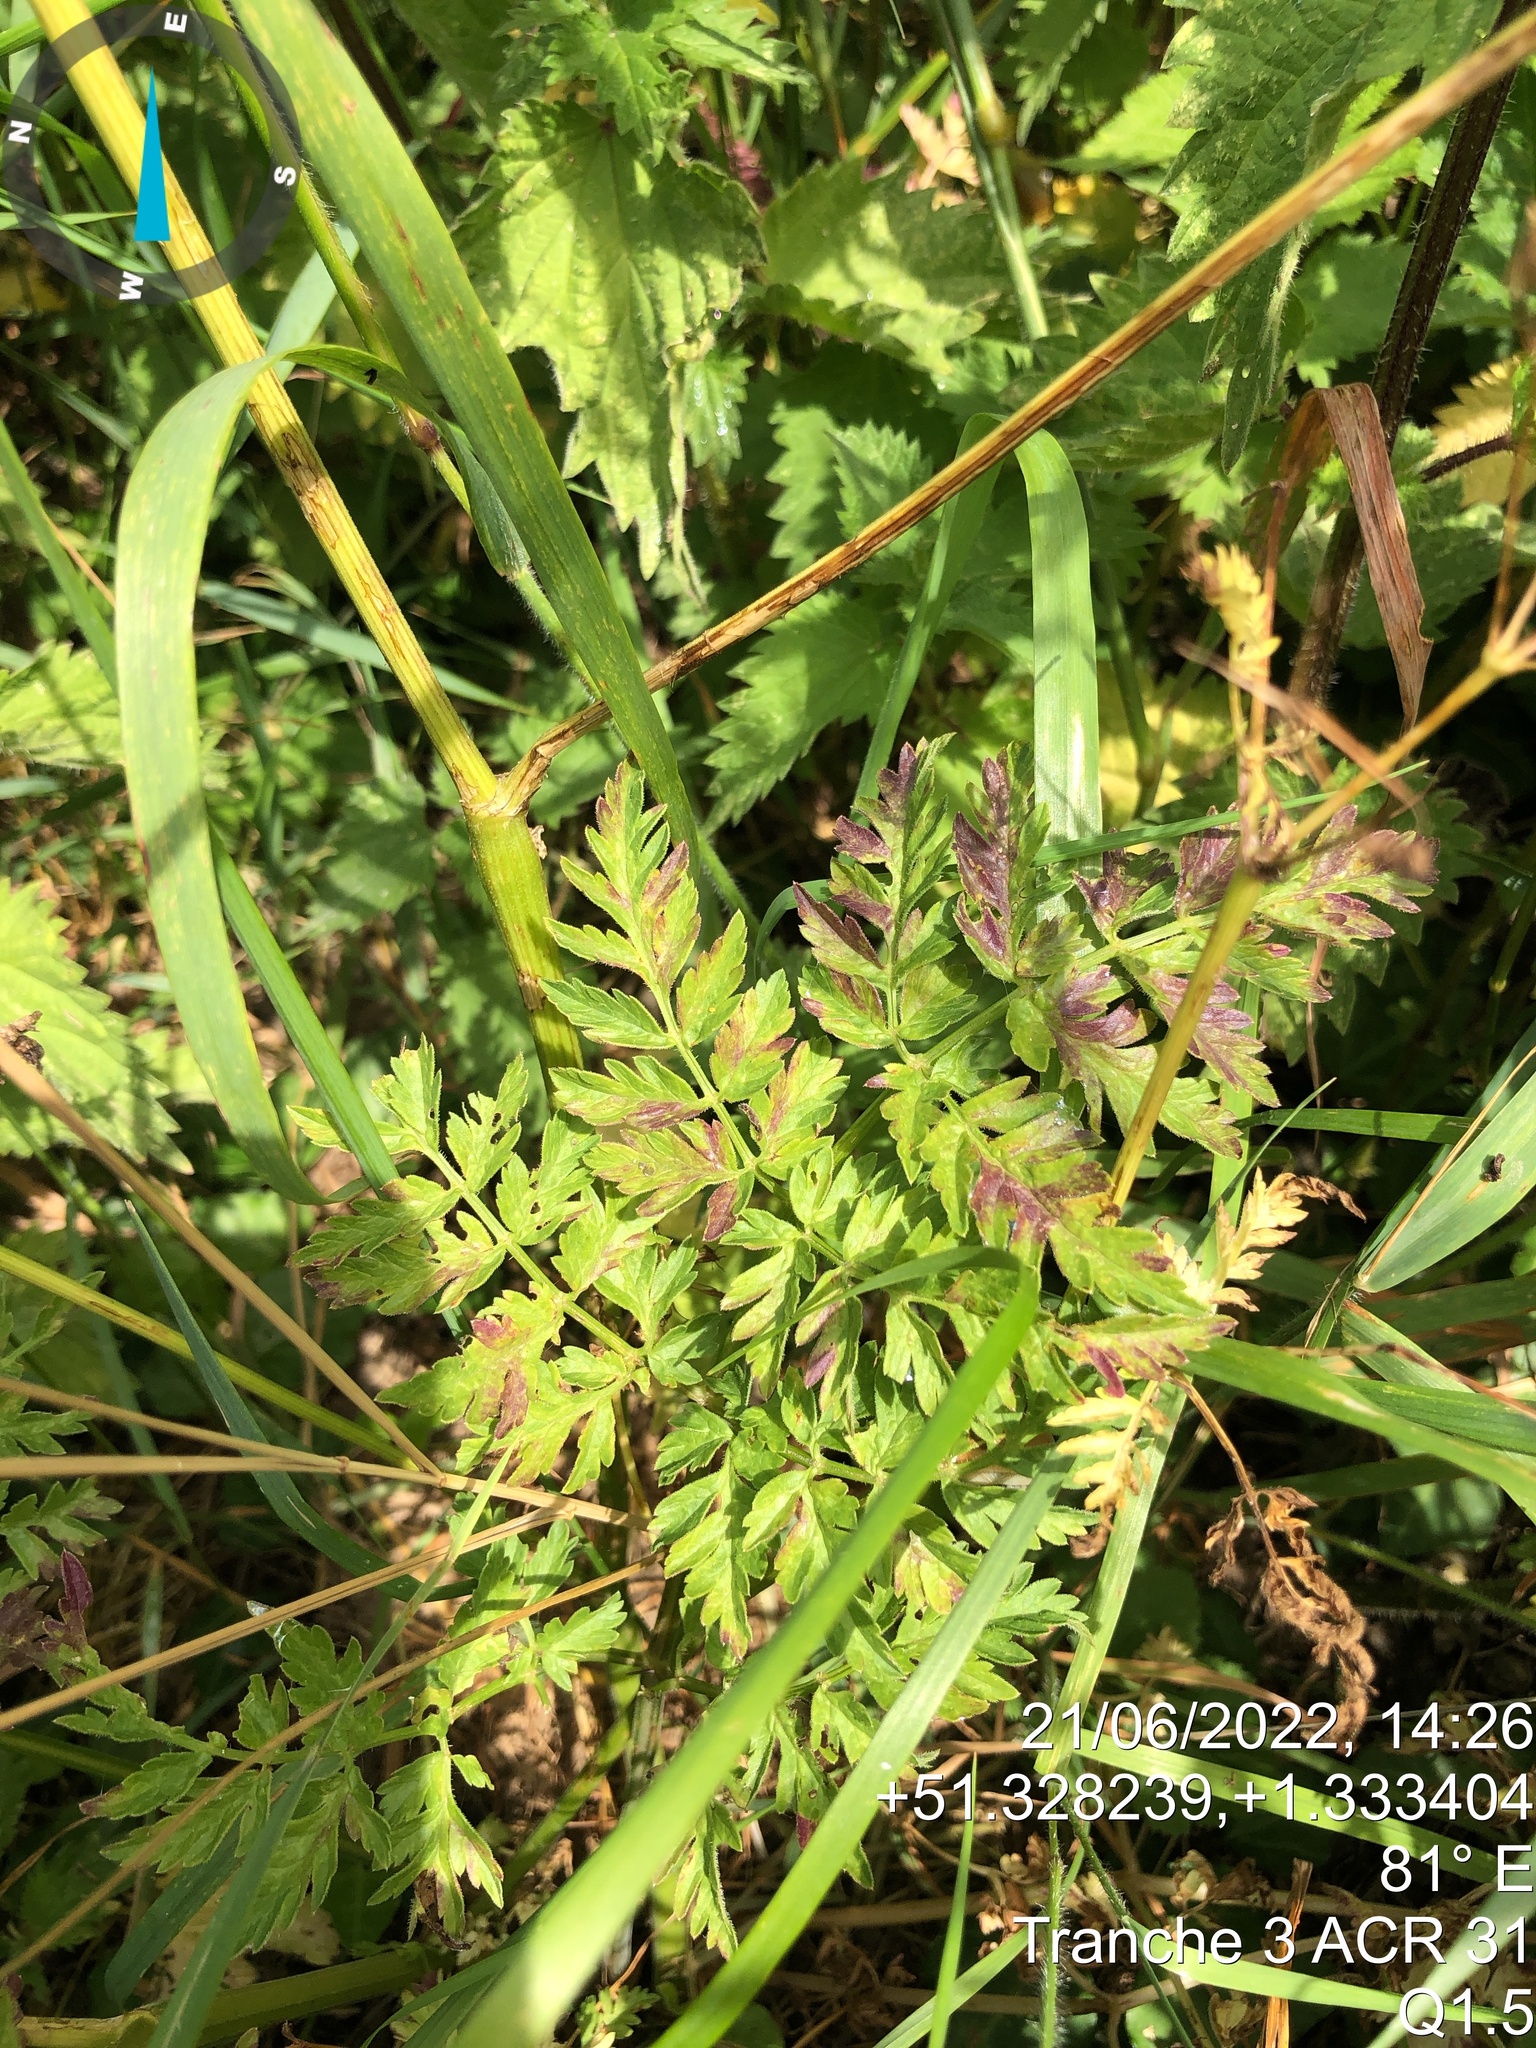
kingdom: Plantae
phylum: Tracheophyta
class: Magnoliopsida
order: Apiales
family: Apiaceae
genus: Anthriscus
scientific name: Anthriscus sylvestris
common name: Cow parsley
